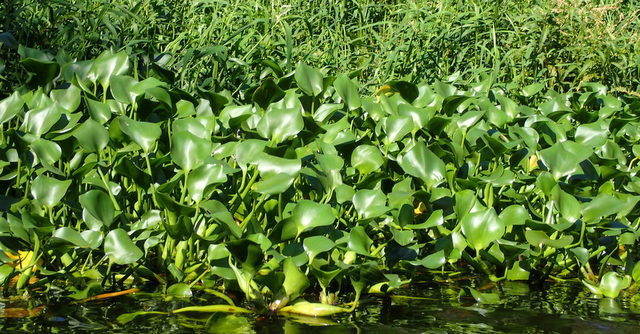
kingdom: Plantae
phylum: Tracheophyta
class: Liliopsida
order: Commelinales
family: Pontederiaceae
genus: Pontederia
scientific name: Pontederia crassipes
